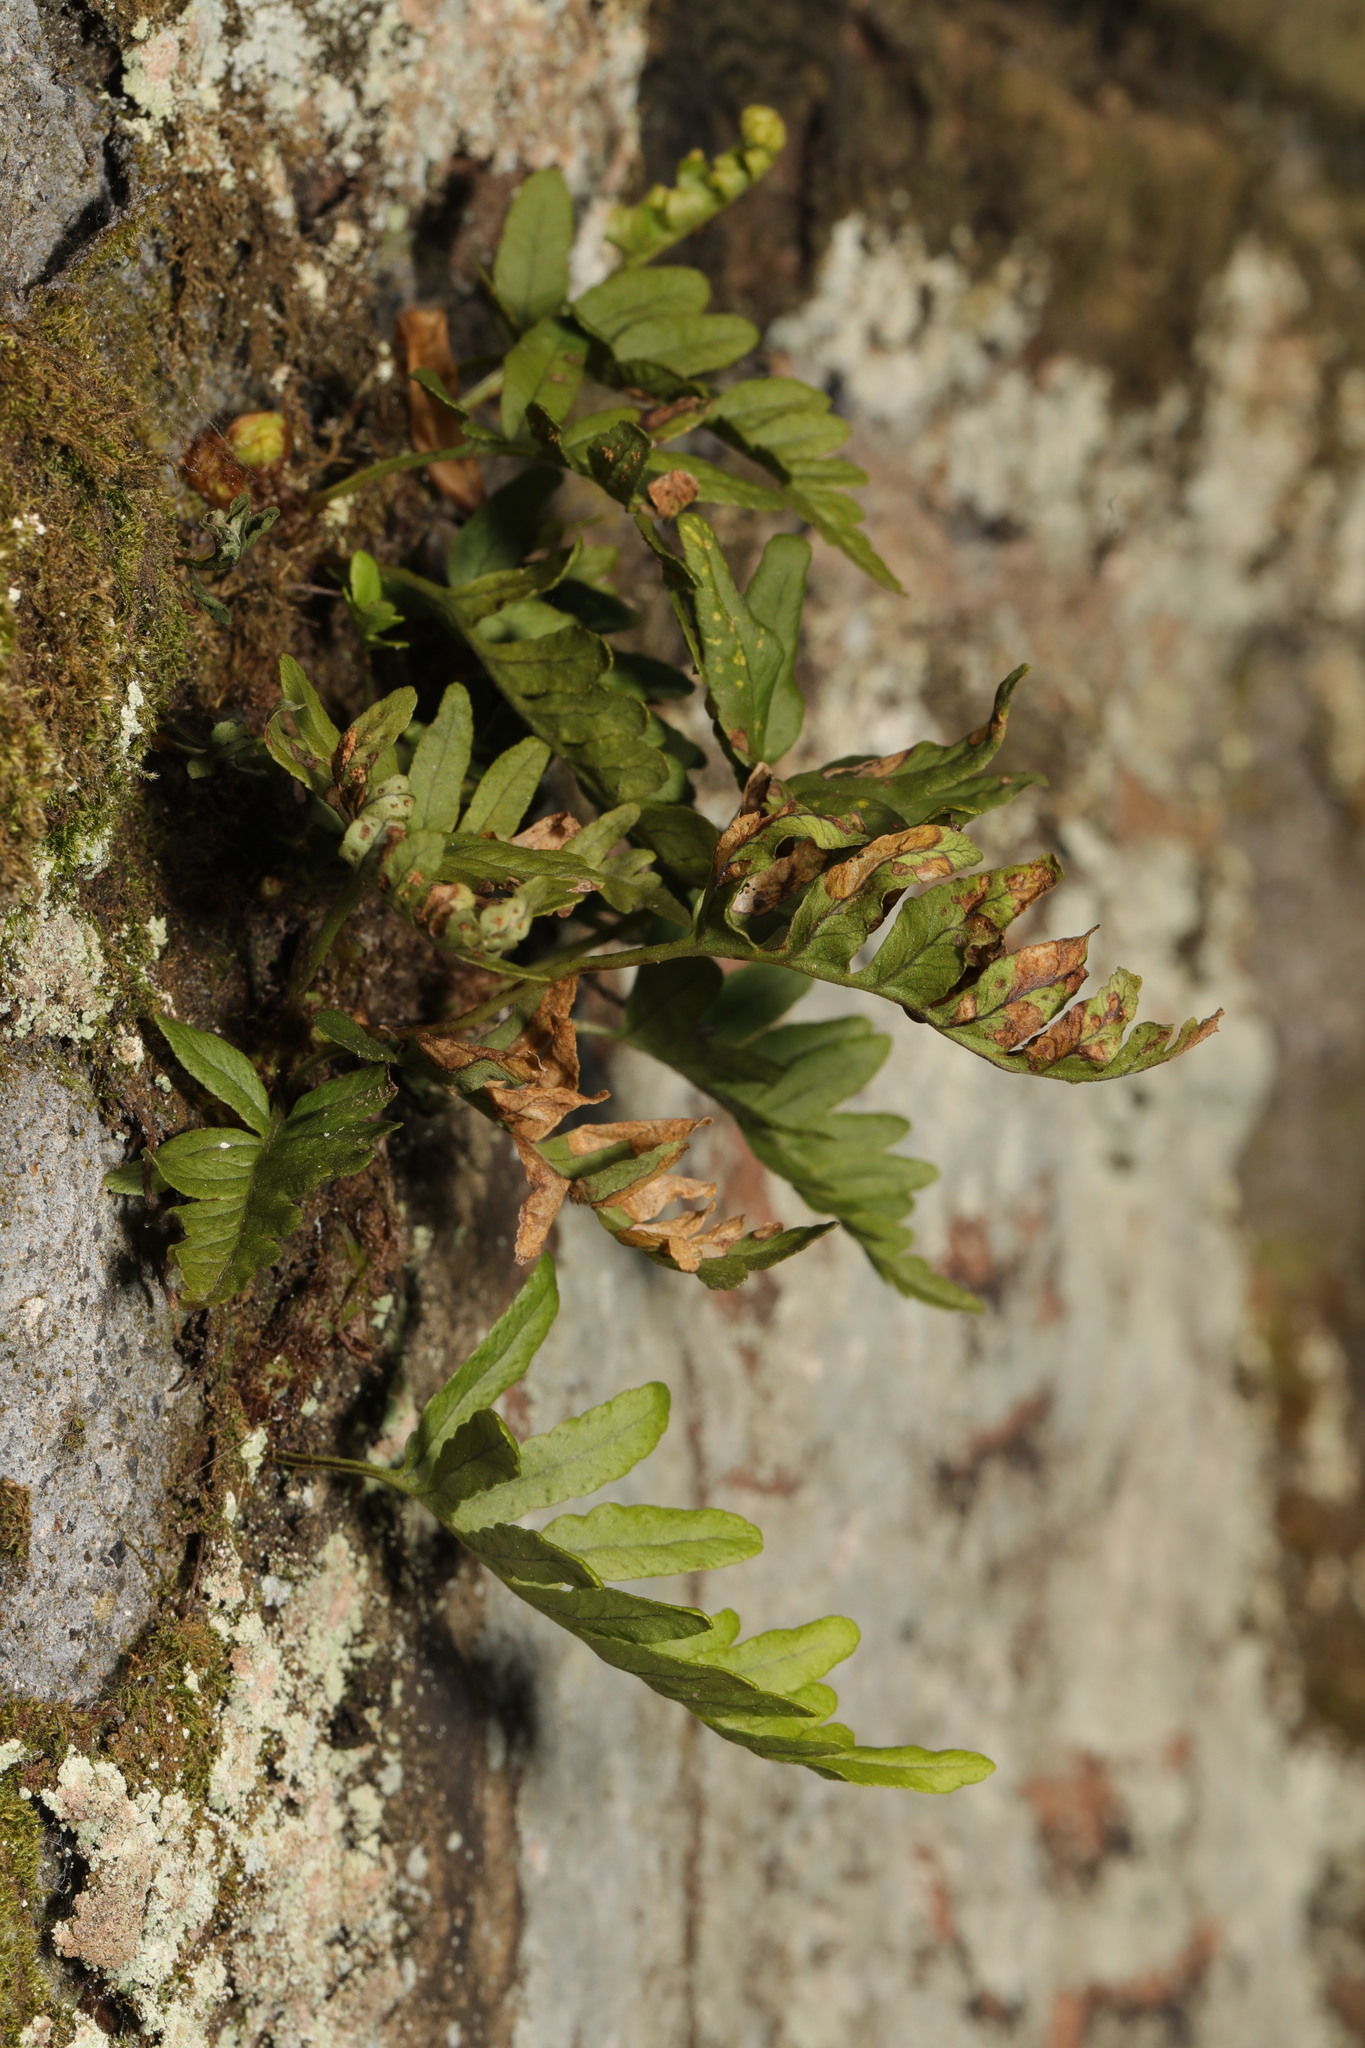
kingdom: Plantae
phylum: Tracheophyta
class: Polypodiopsida
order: Polypodiales
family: Polypodiaceae
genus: Polypodium
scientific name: Polypodium vulgare
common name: Common polypody
